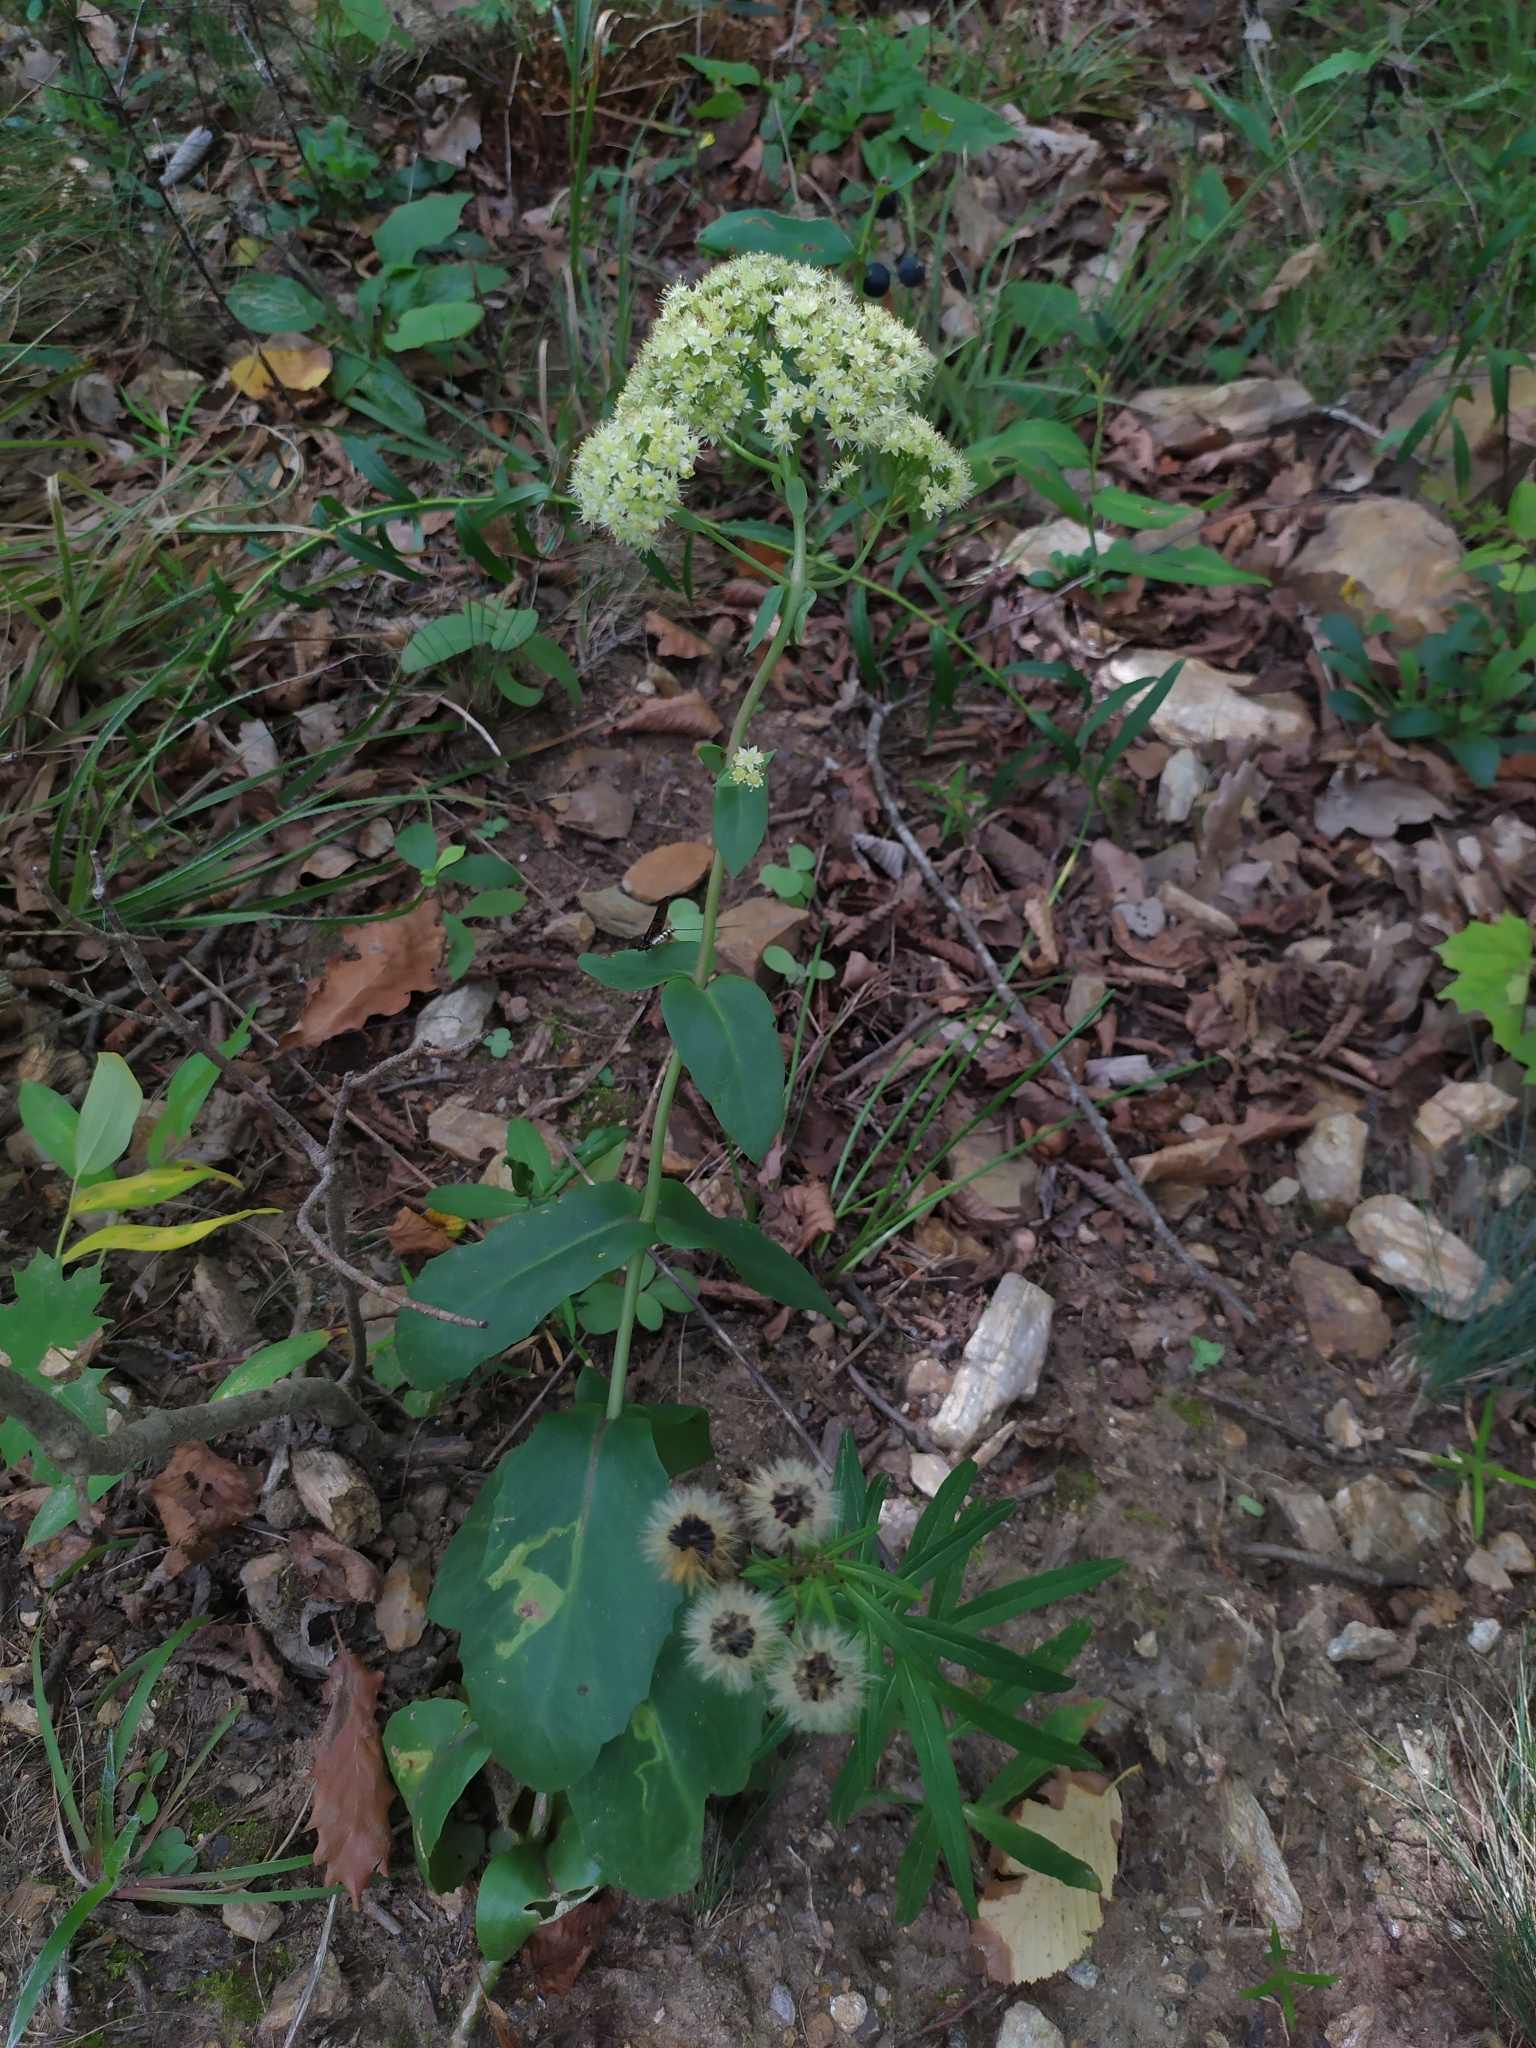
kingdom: Plantae
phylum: Tracheophyta
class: Magnoliopsida
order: Saxifragales
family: Crassulaceae
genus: Hylotelephium
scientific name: Hylotelephium maximum
